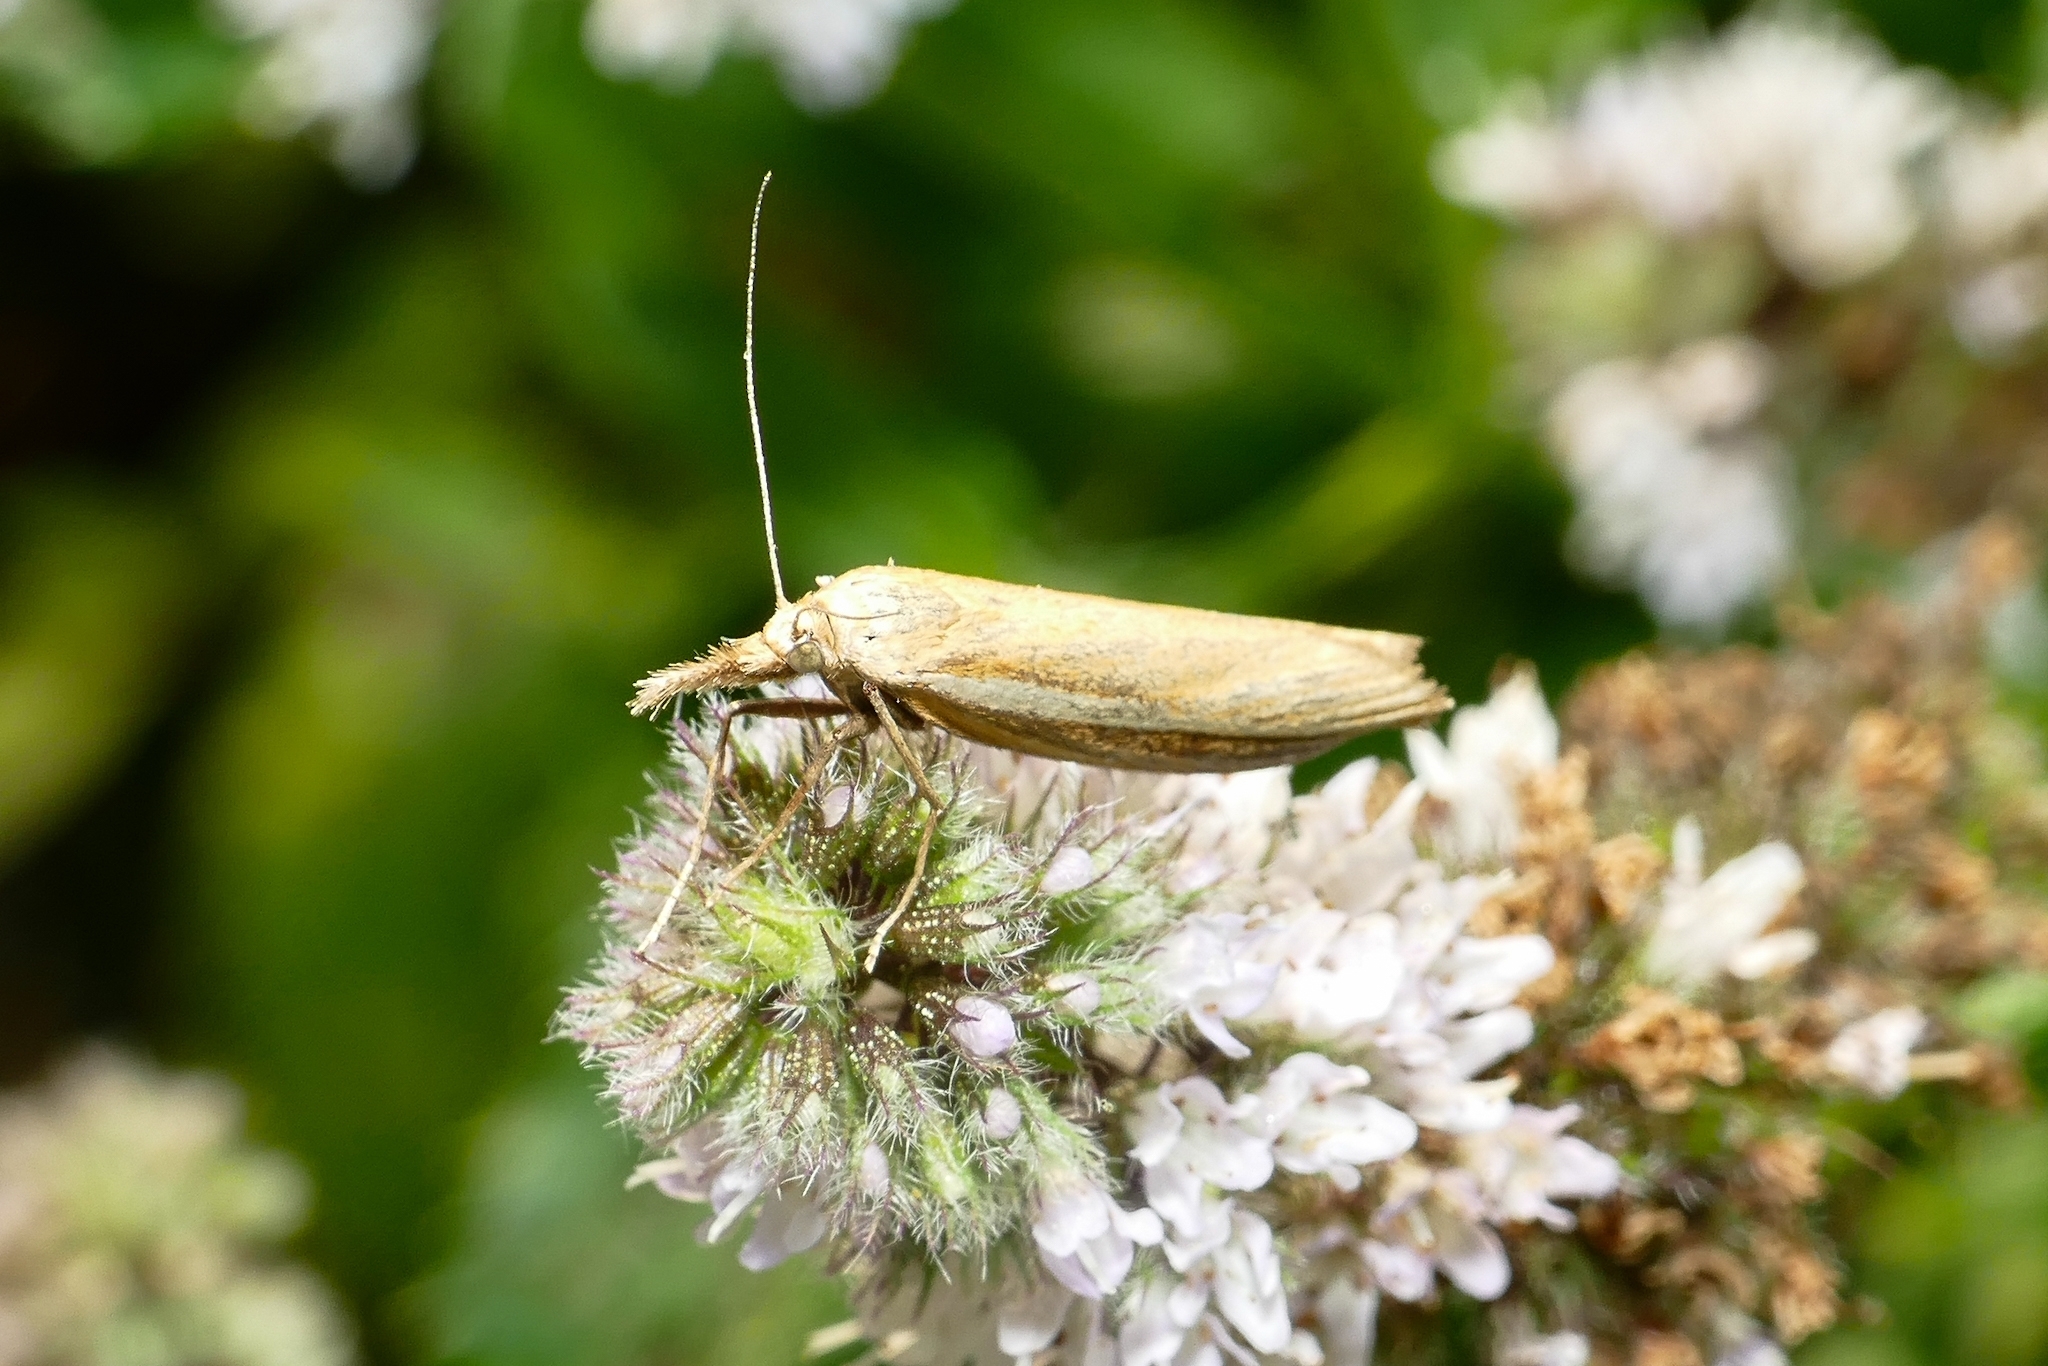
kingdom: Animalia
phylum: Arthropoda
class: Insecta
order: Lepidoptera
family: Crambidae
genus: Agriphila
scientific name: Agriphila tristellus
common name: Common grass-veneer
